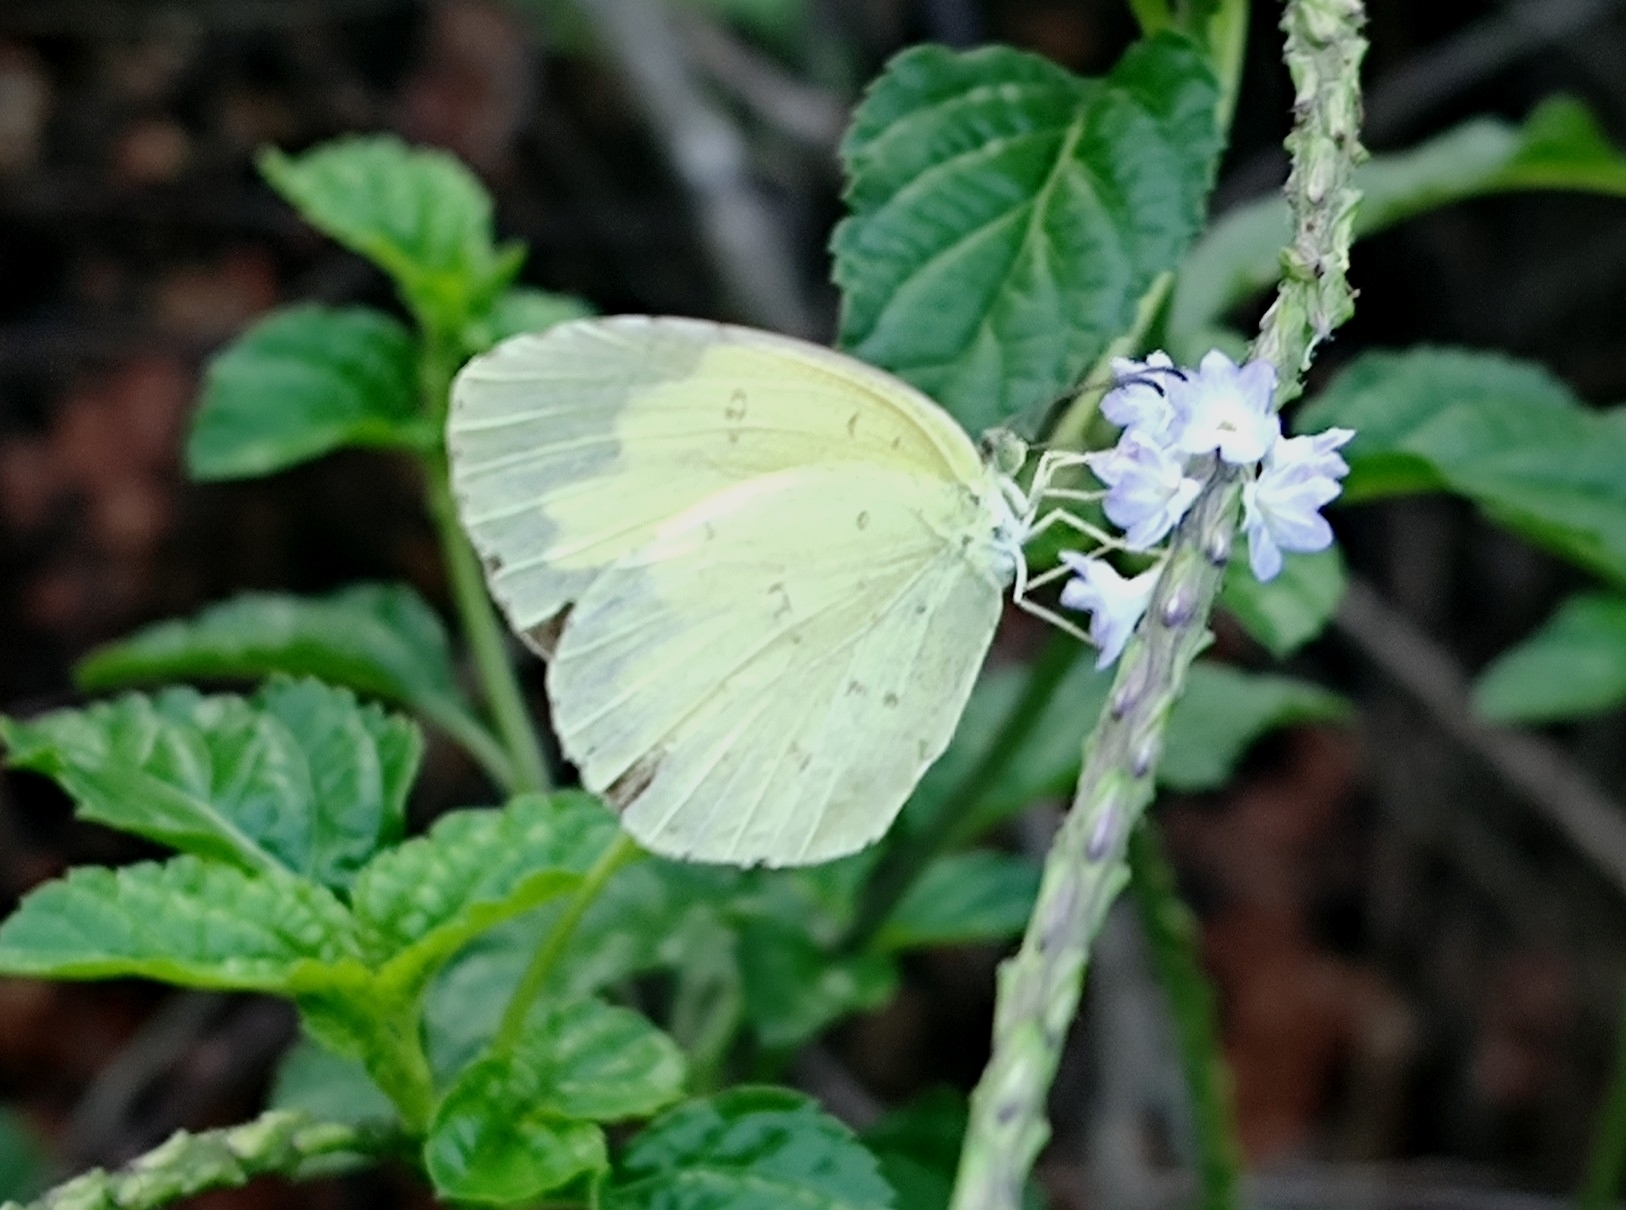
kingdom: Animalia
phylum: Arthropoda
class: Insecta
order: Lepidoptera
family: Pieridae
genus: Eurema
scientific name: Eurema hecabe
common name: Pale grass yellow
